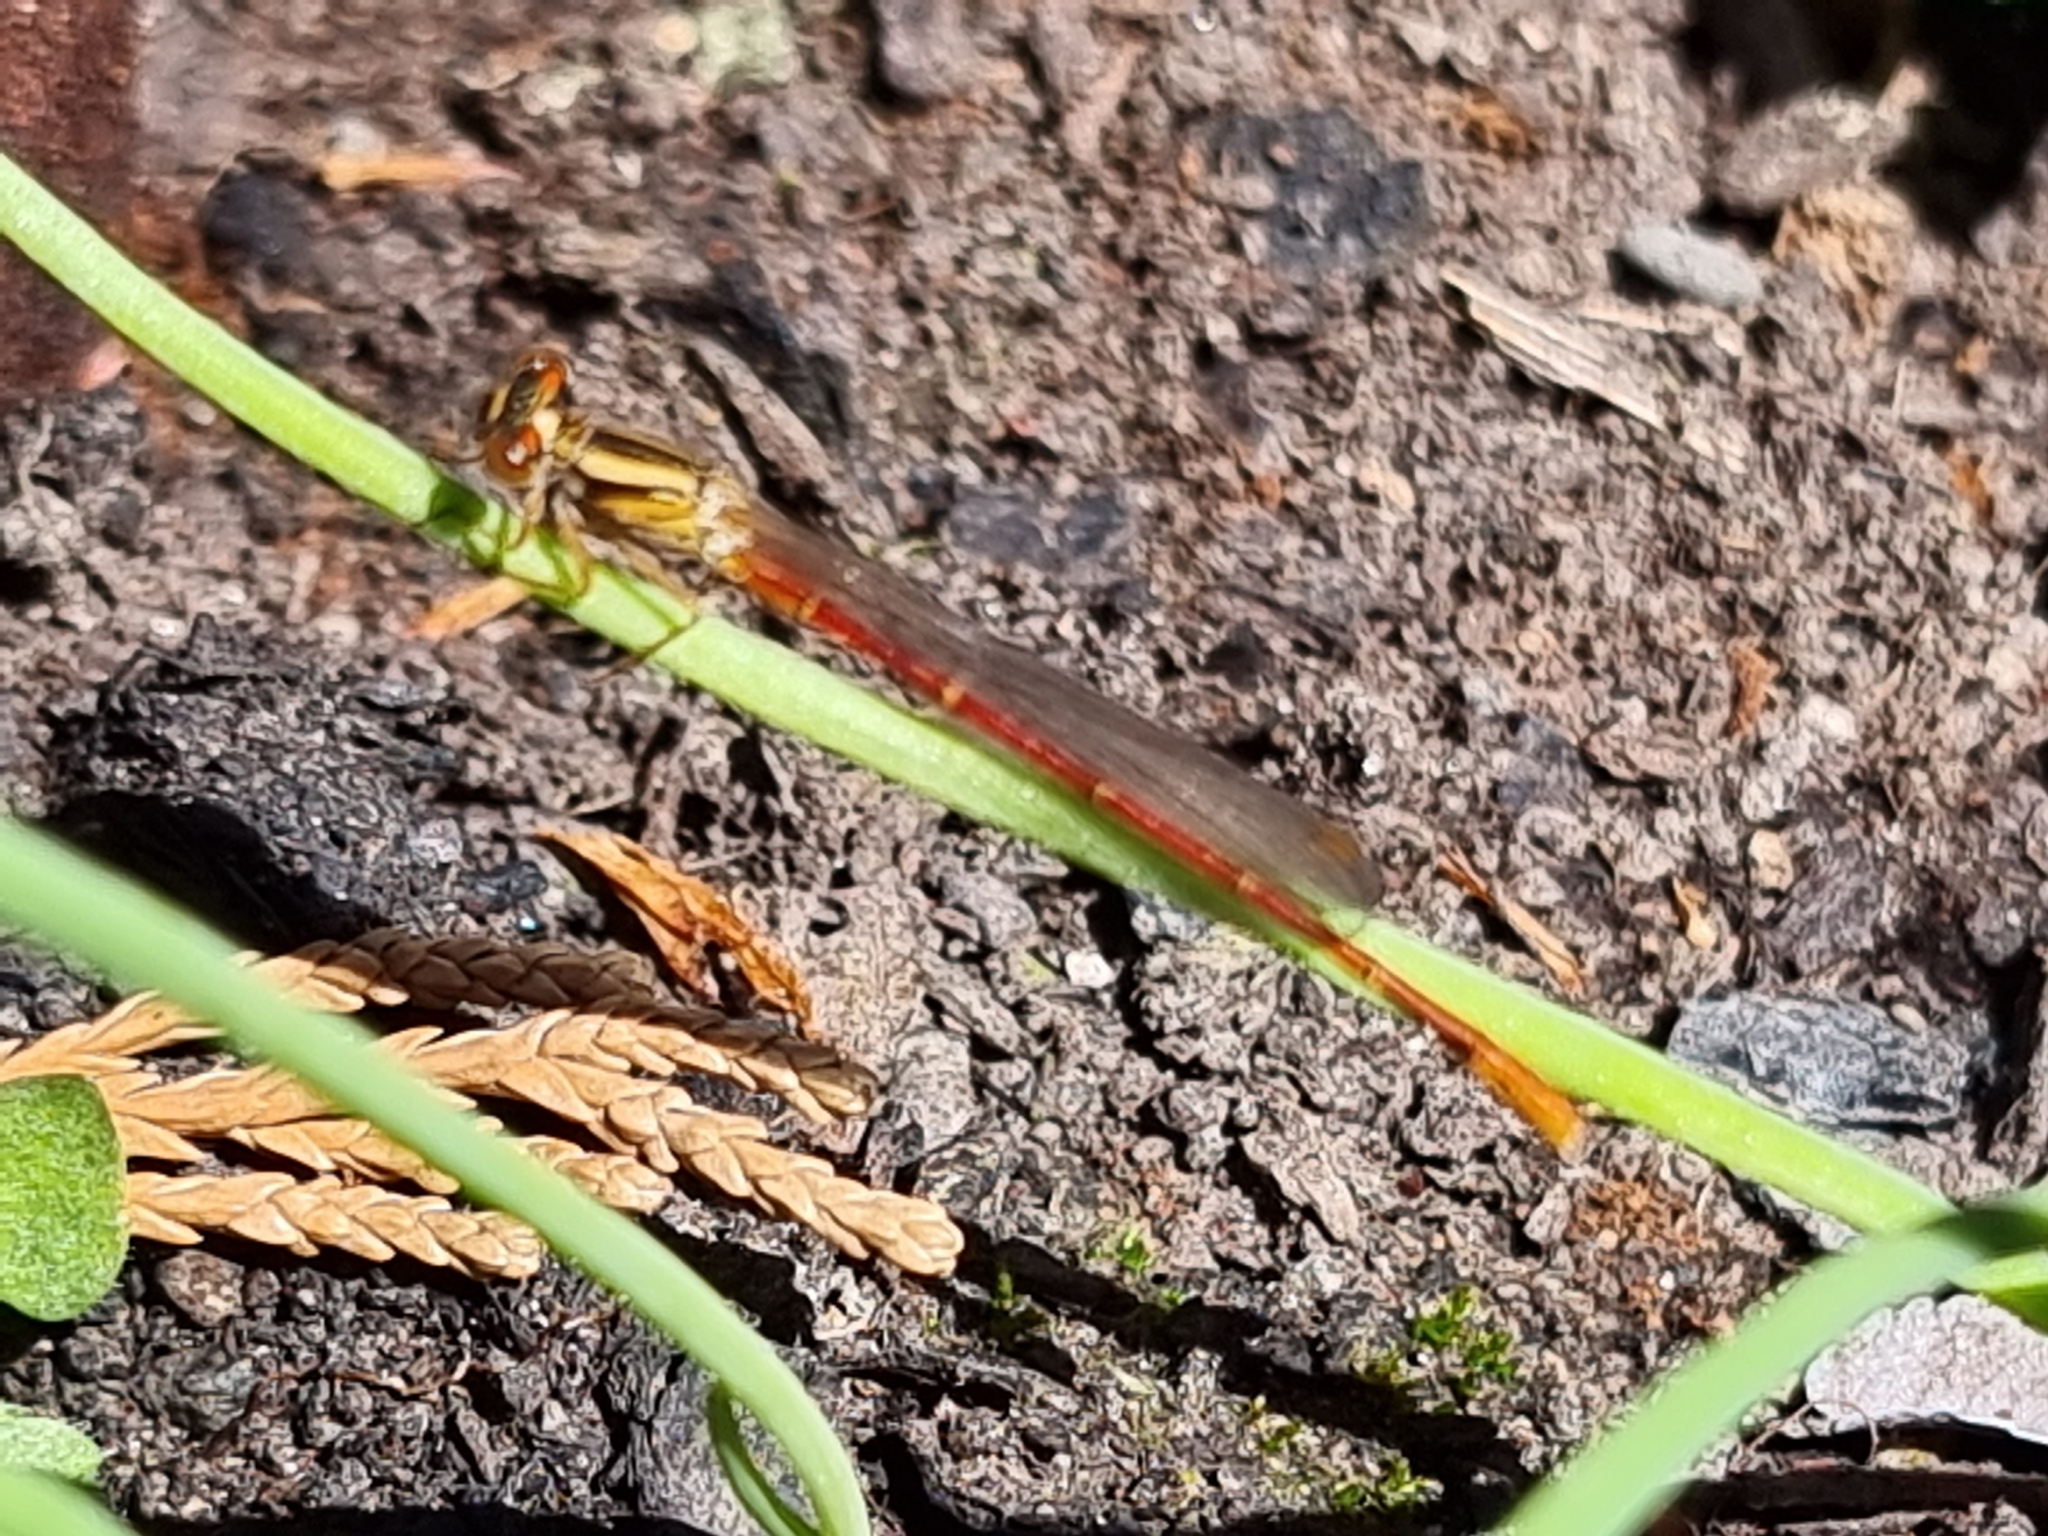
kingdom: Animalia
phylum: Arthropoda
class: Insecta
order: Odonata
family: Coenagrionidae
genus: Xanthocnemis
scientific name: Xanthocnemis zealandica
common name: Common redcoat damselfly
